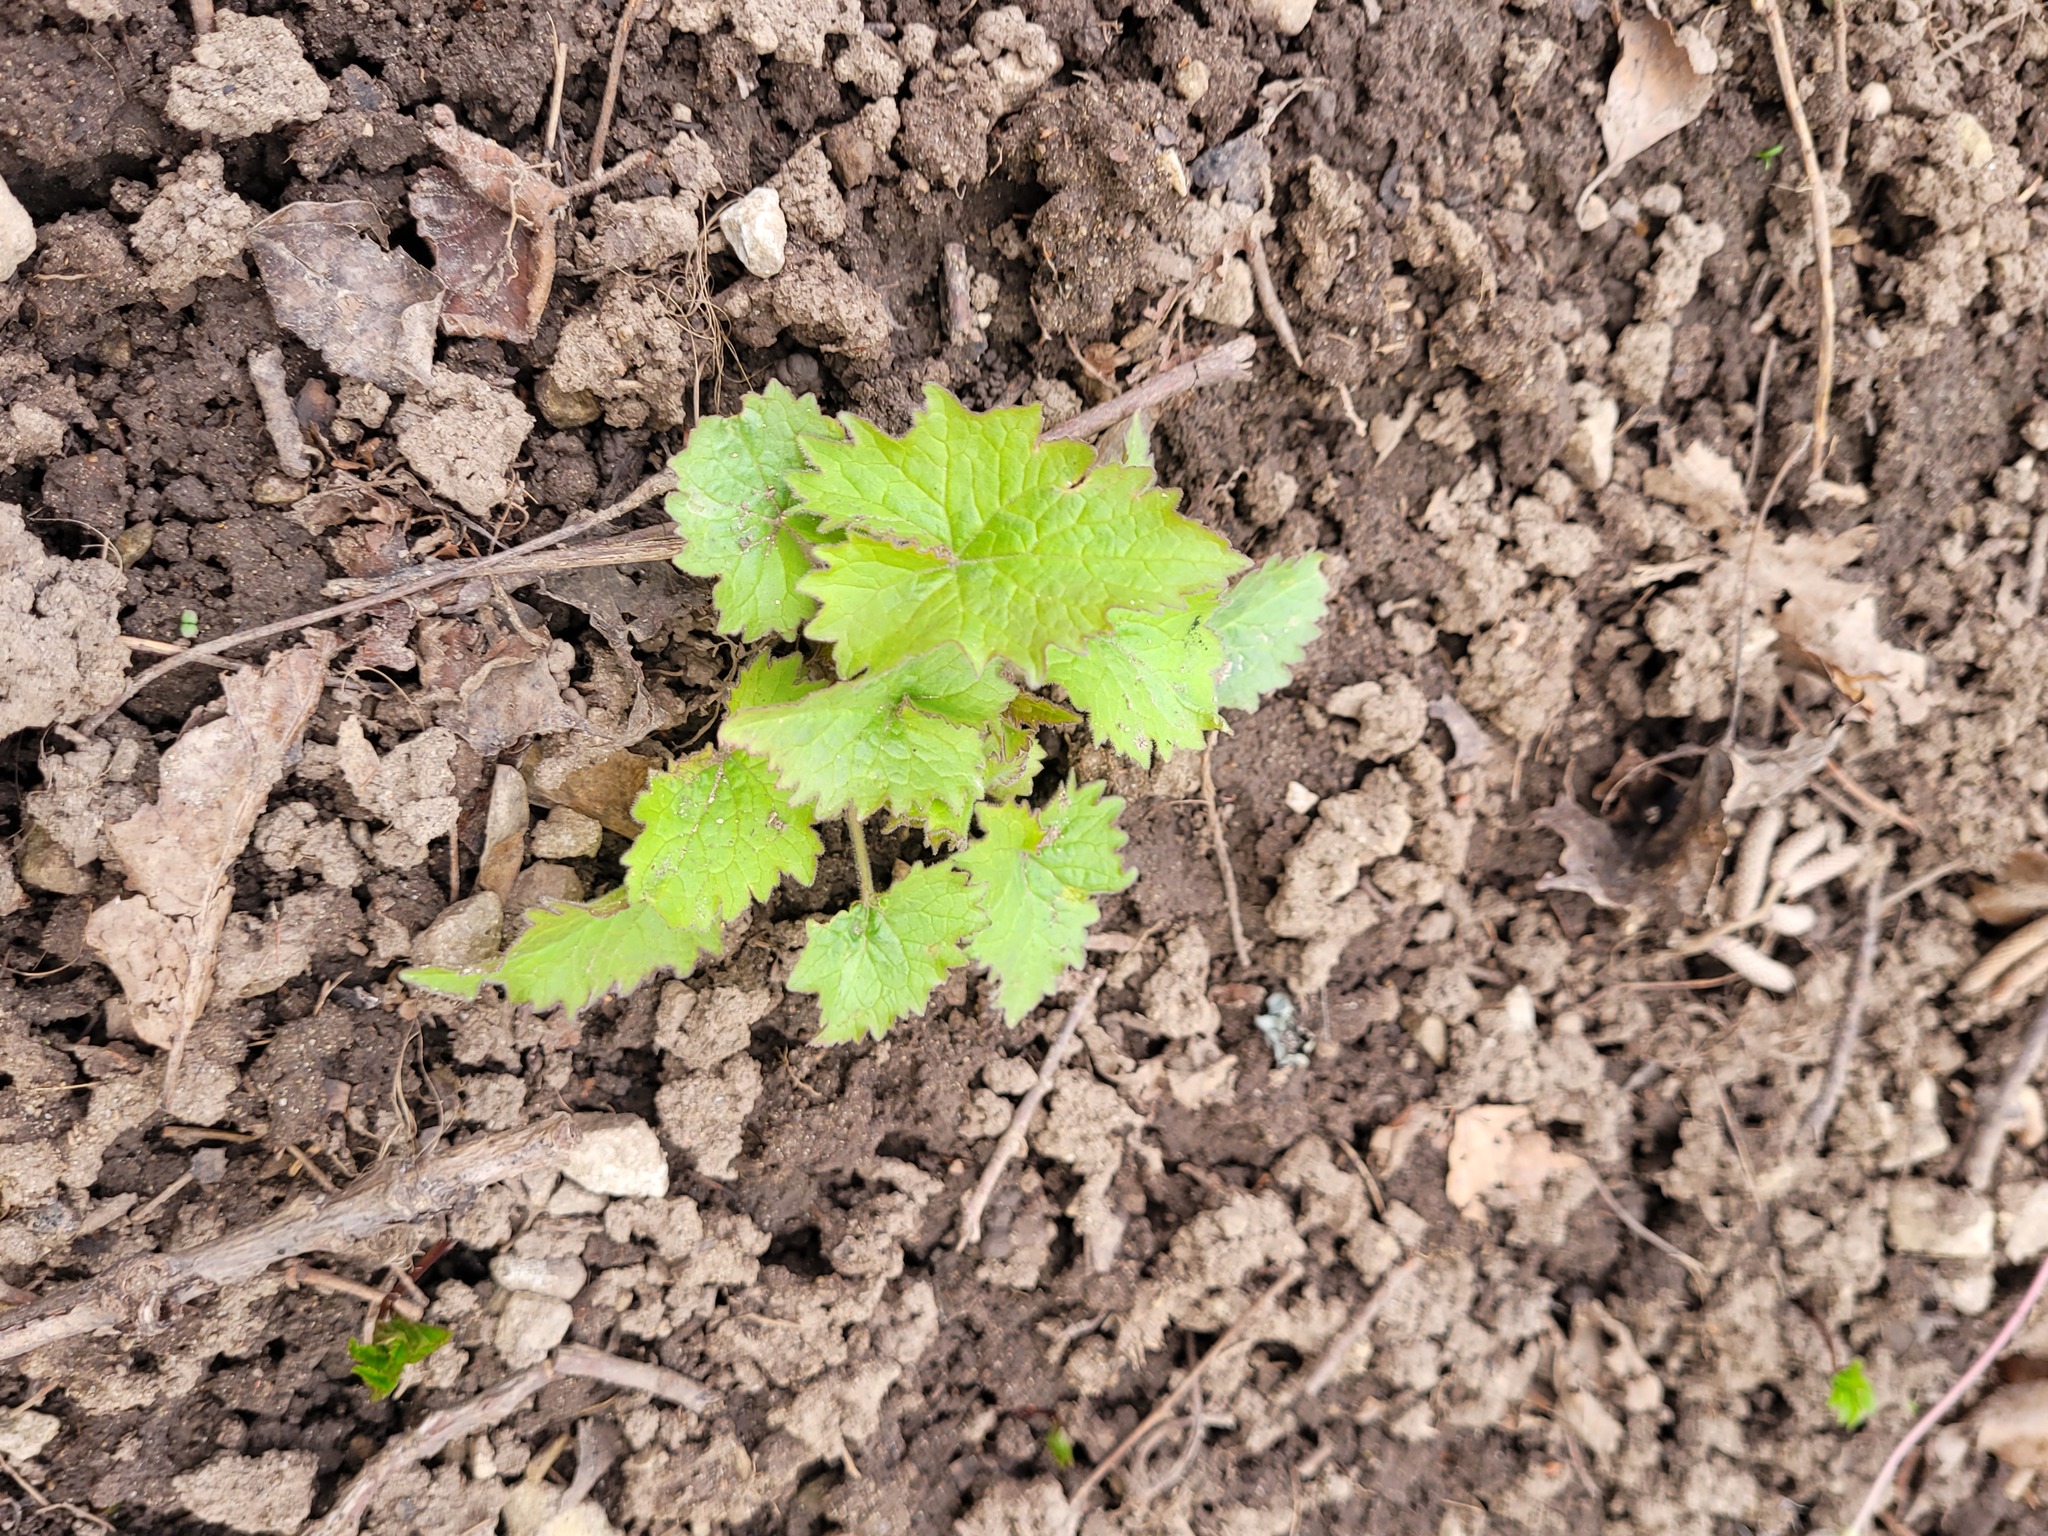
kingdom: Plantae
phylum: Tracheophyta
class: Magnoliopsida
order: Asterales
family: Campanulaceae
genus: Campanula
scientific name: Campanula trachelium
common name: Nettle-leaved bellflower
